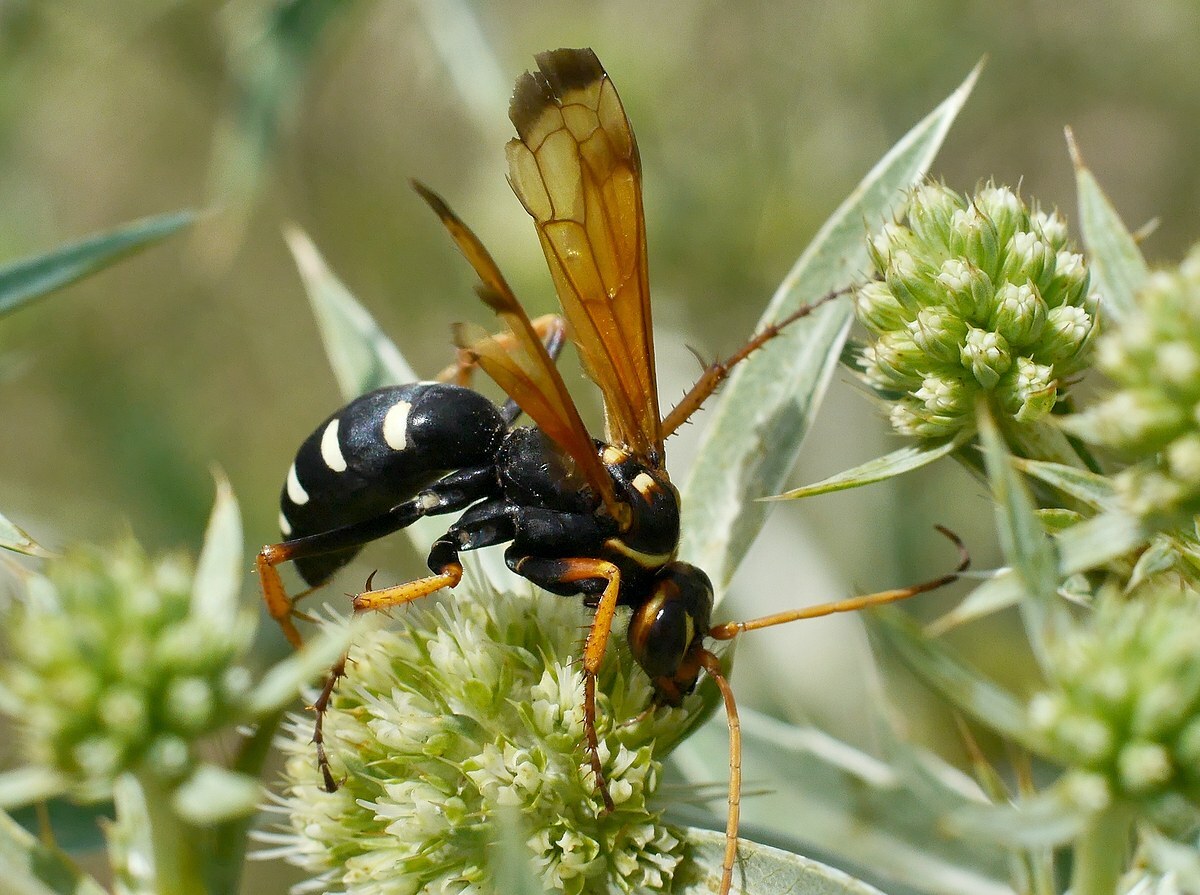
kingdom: Animalia
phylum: Arthropoda
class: Insecta
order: Hymenoptera
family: Pompilidae
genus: Parabatozonus
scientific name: Parabatozonus lacerticida
